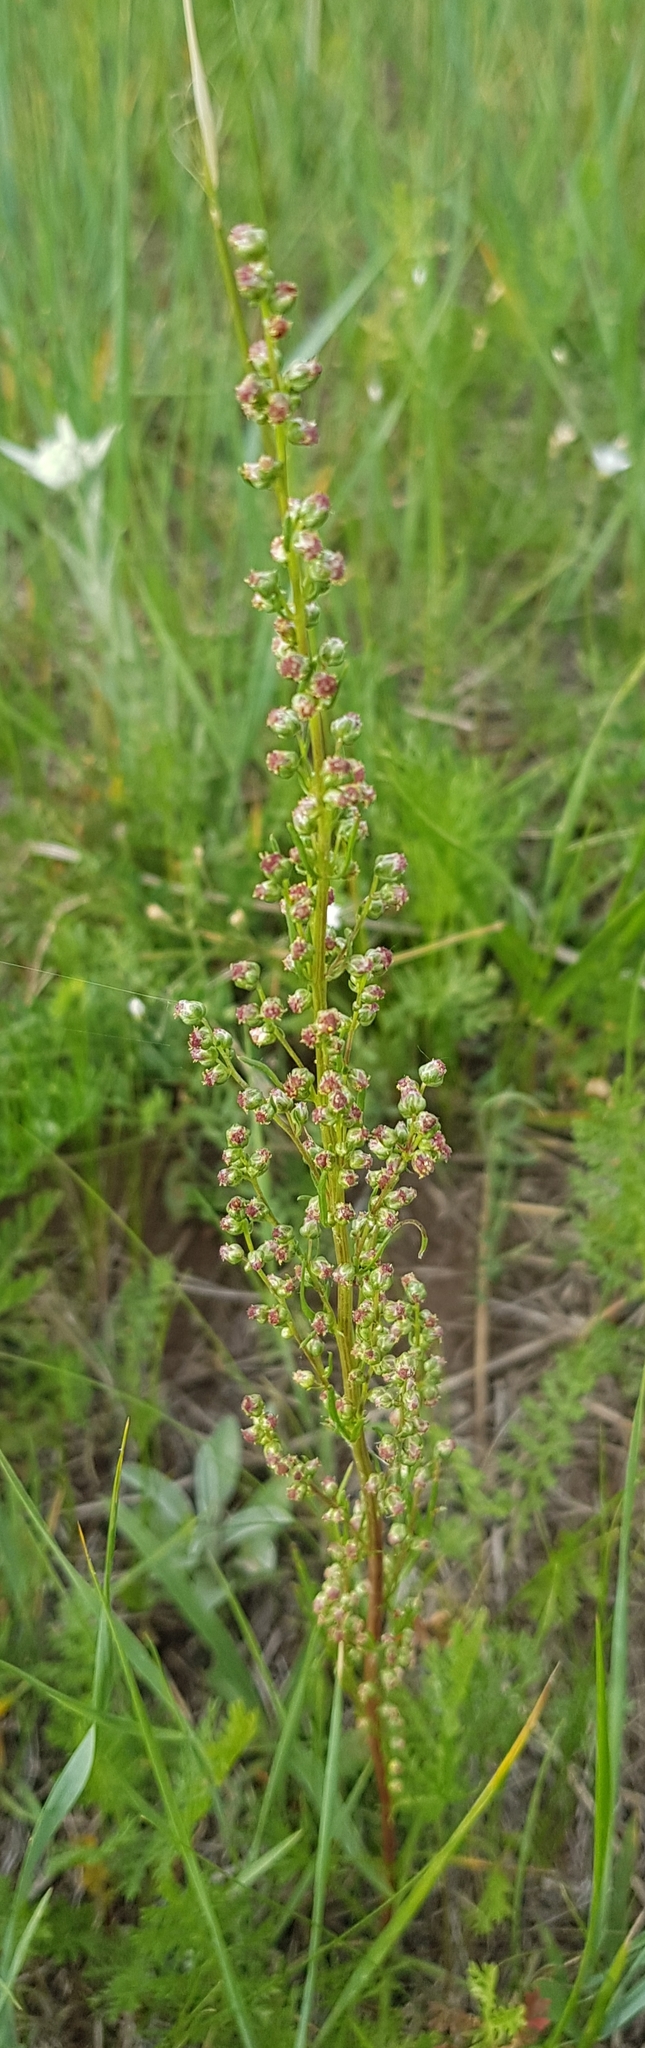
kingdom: Plantae
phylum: Tracheophyta
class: Magnoliopsida
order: Asterales
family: Asteraceae
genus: Artemisia
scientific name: Artemisia pubescens
